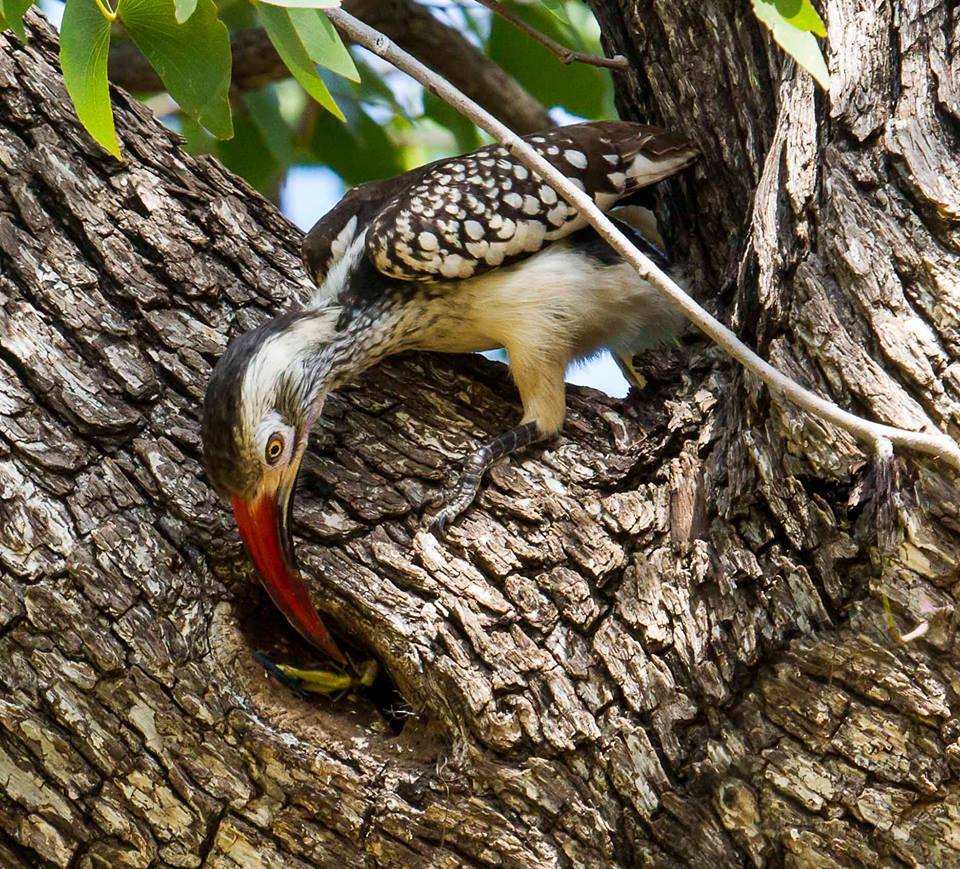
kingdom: Animalia
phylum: Chordata
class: Aves
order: Bucerotiformes
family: Bucerotidae
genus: Tockus
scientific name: Tockus rufirostris
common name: Southern red-billed hornbill
